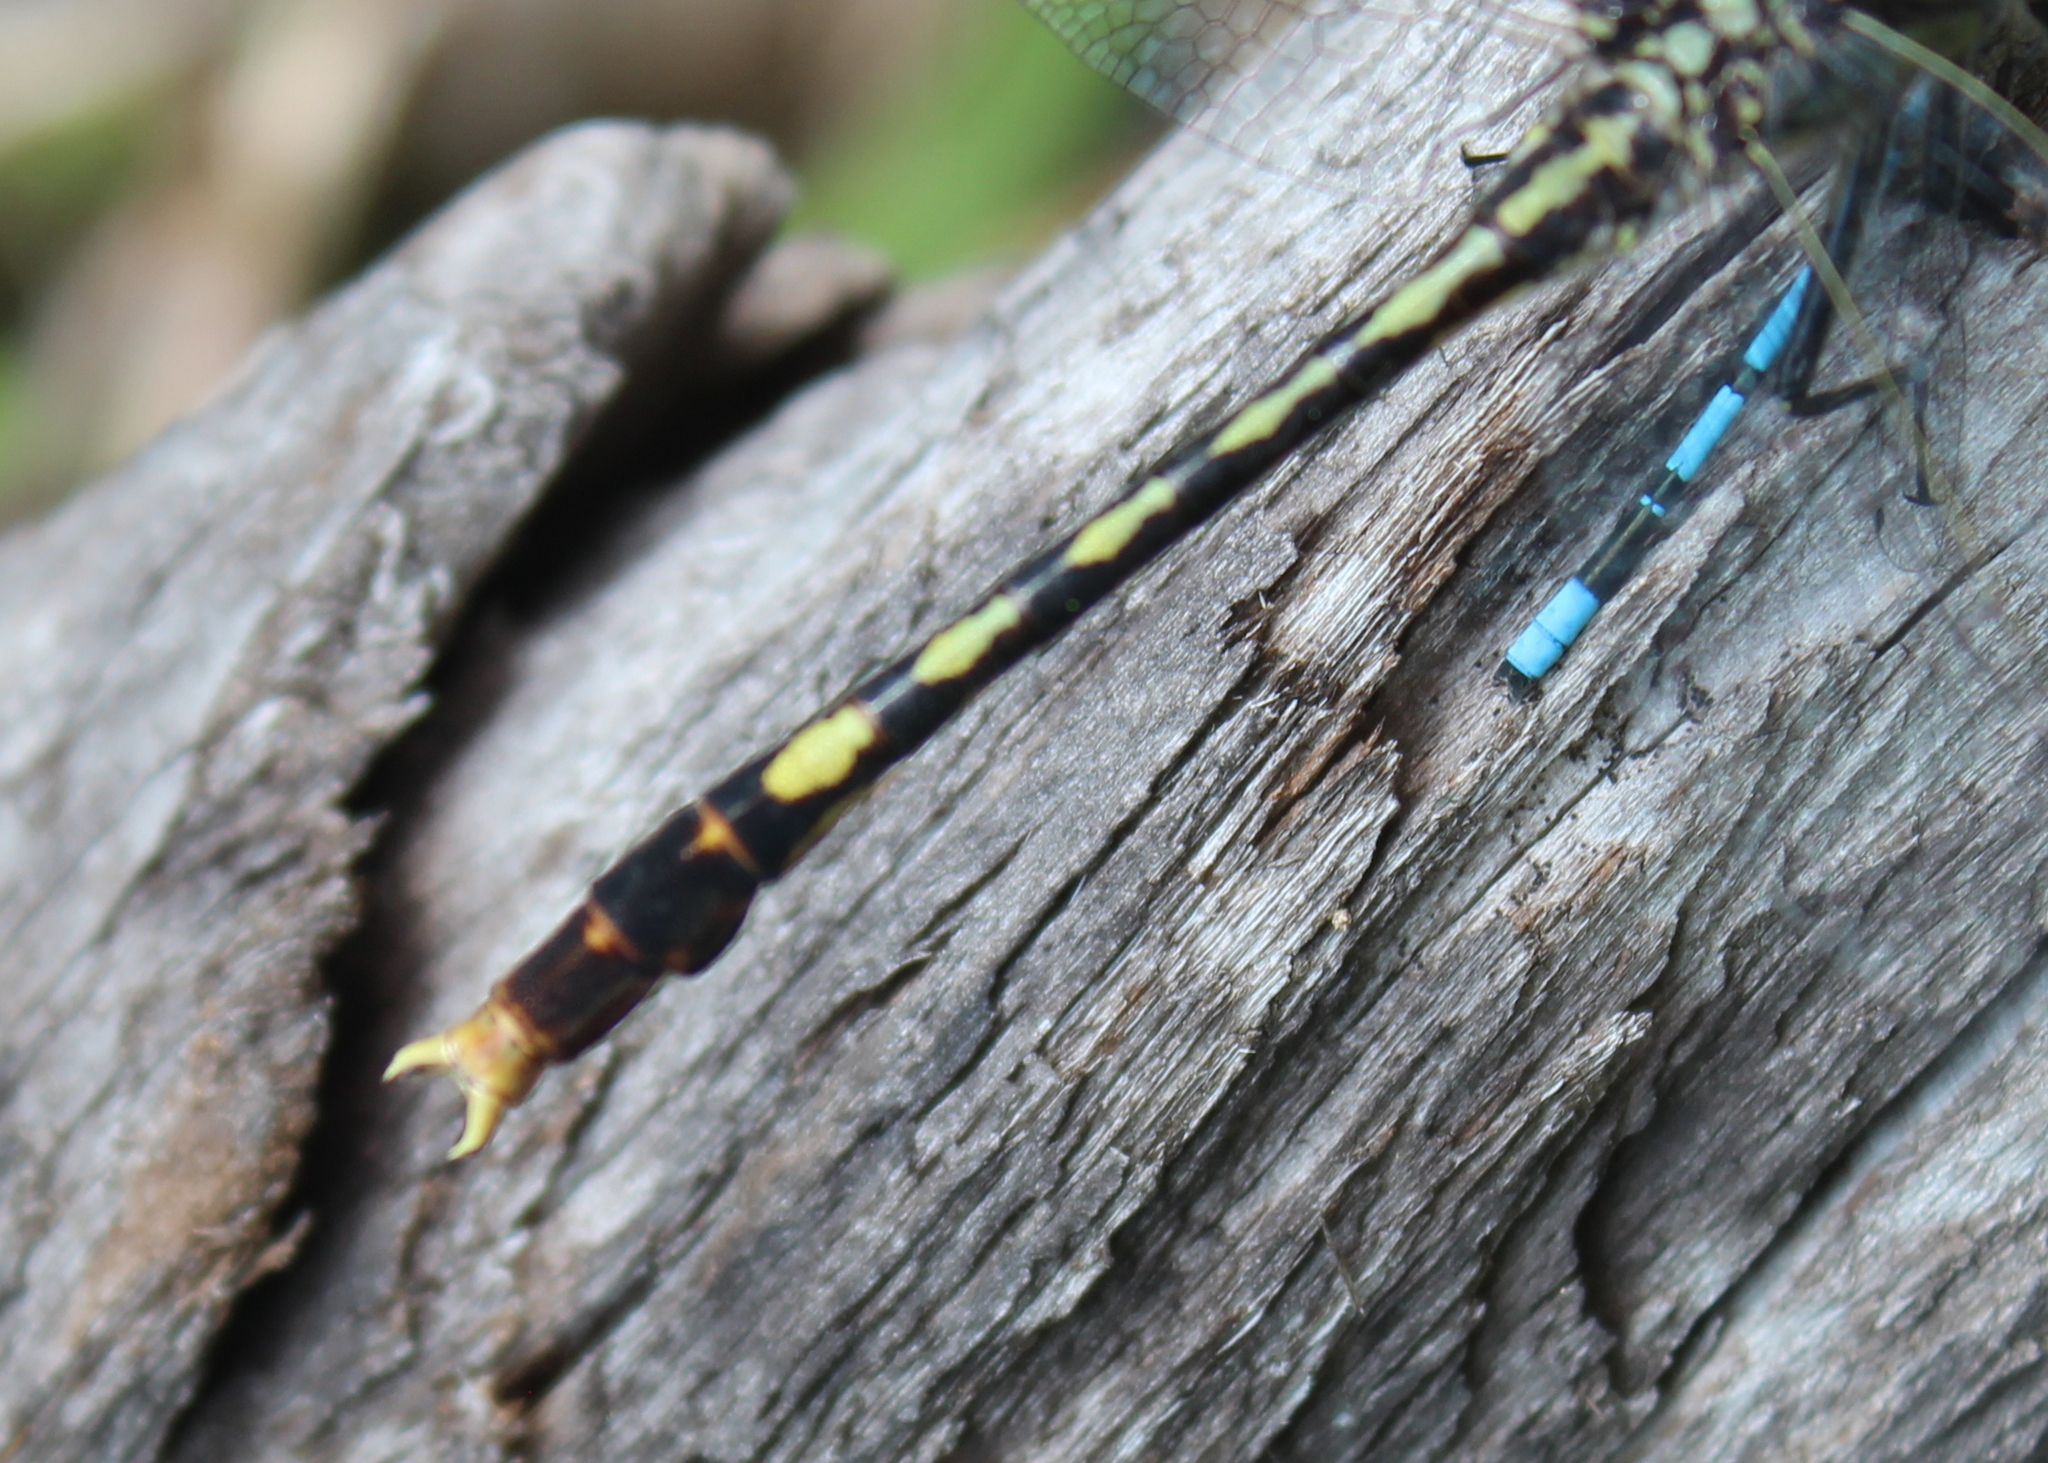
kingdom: Animalia
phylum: Arthropoda
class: Insecta
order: Odonata
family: Gomphidae
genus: Arigomphus
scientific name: Arigomphus villosipes
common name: Unicorn clubtail
